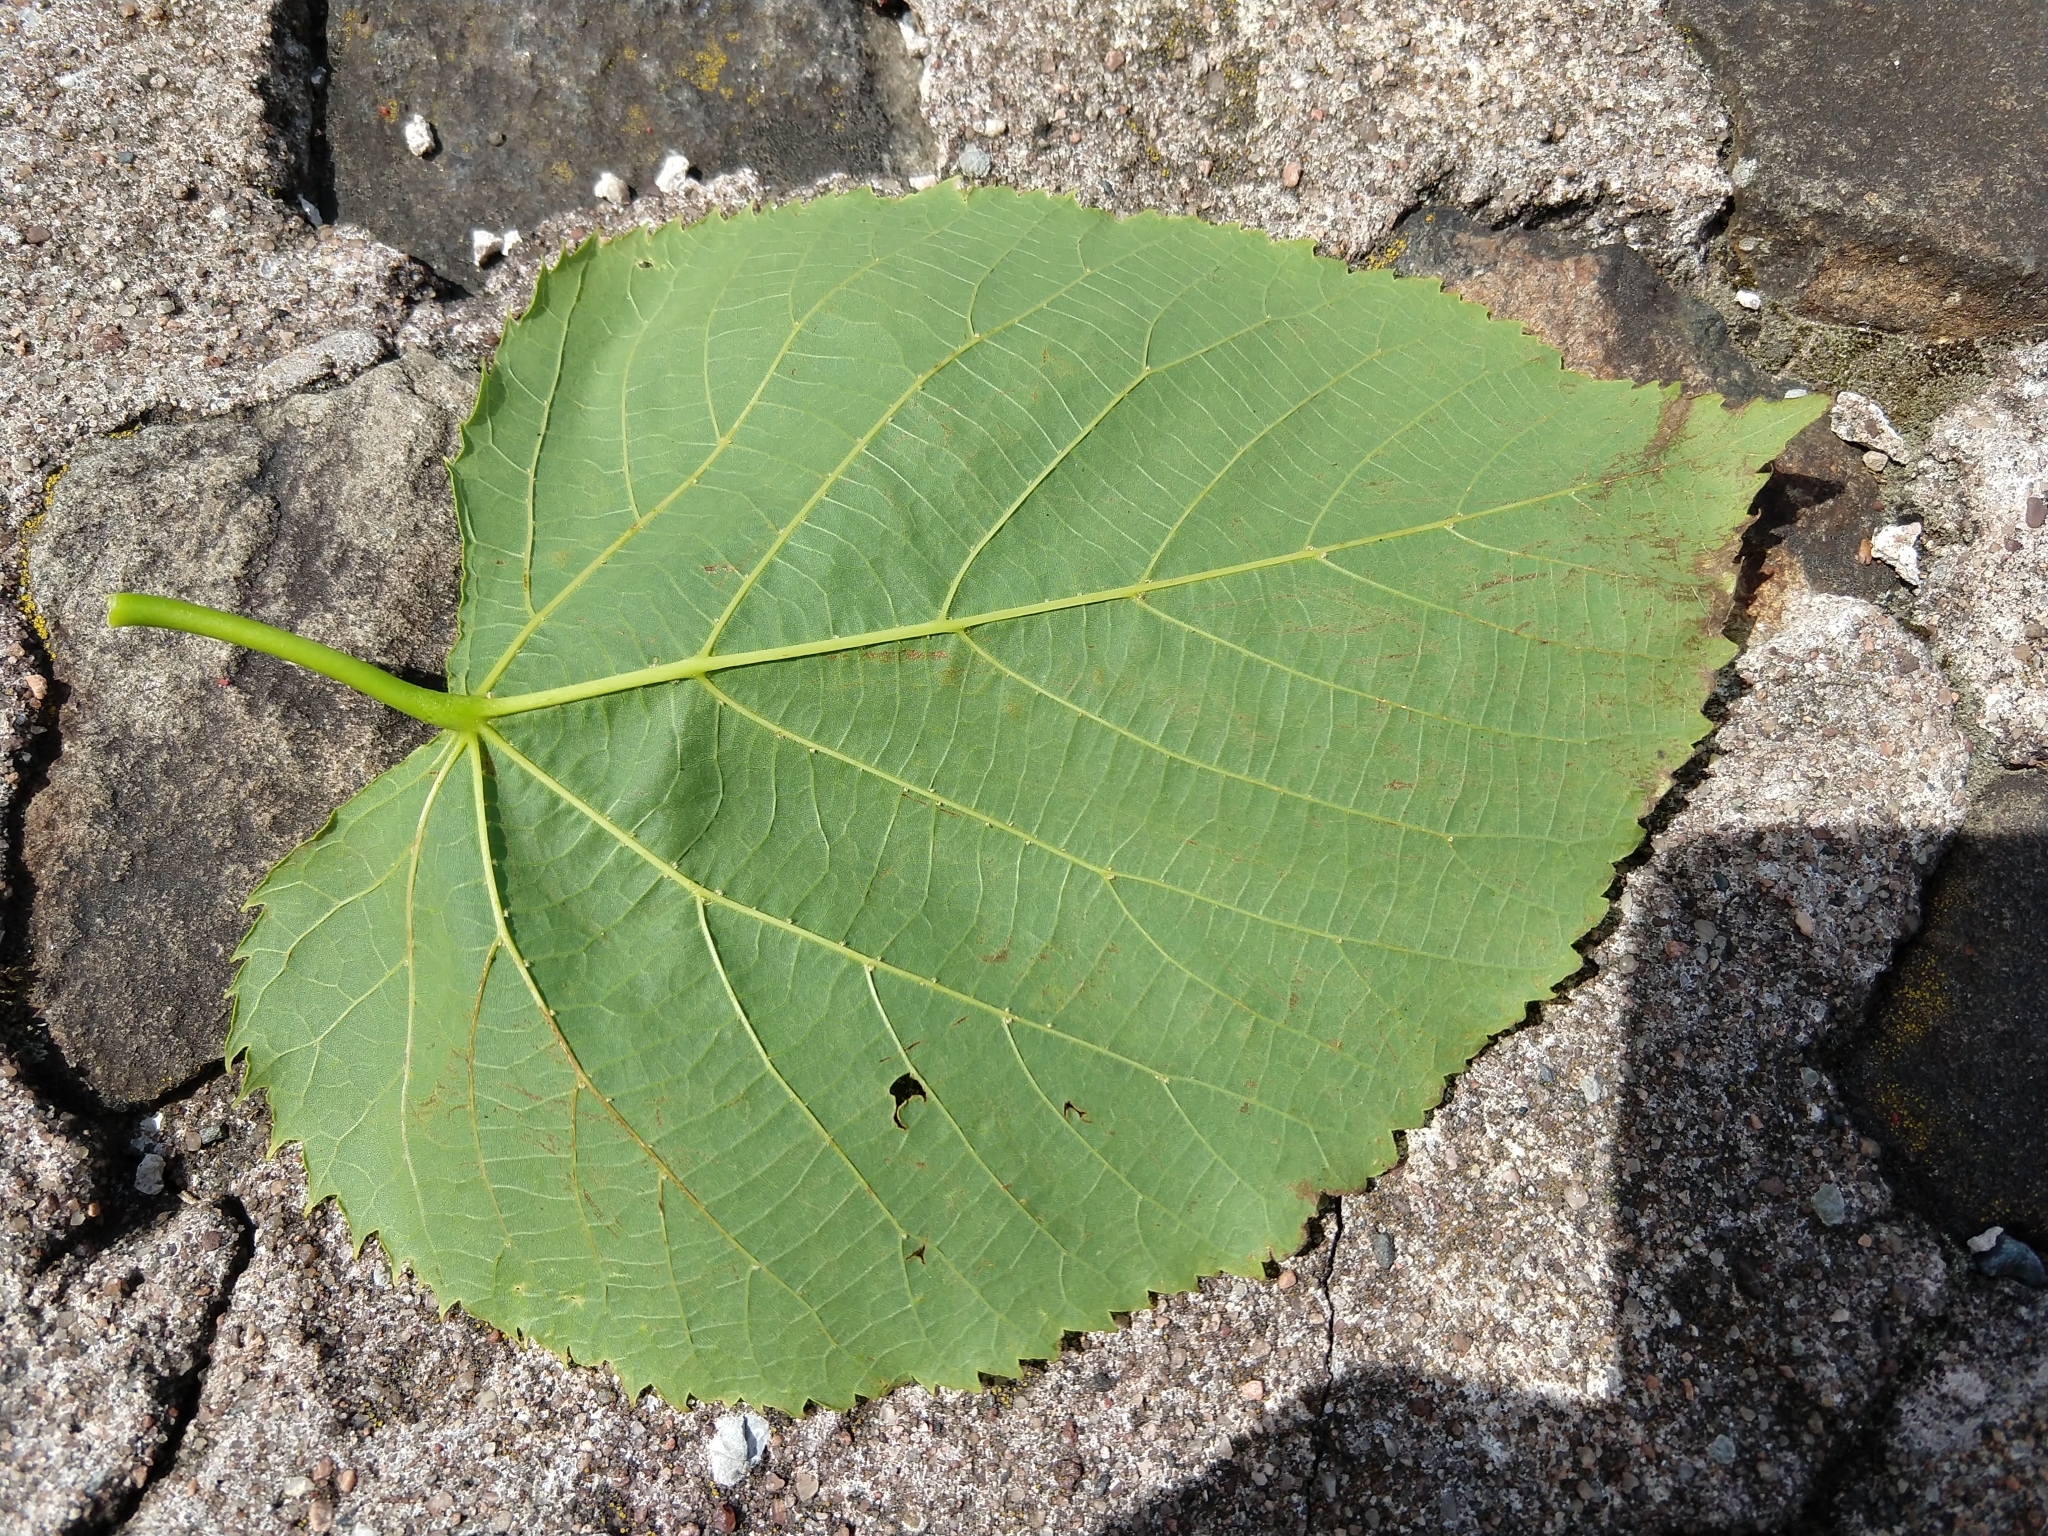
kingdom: Plantae
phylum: Tracheophyta
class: Magnoliopsida
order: Malvales
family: Malvaceae
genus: Tilia
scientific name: Tilia americana
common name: Basswood
